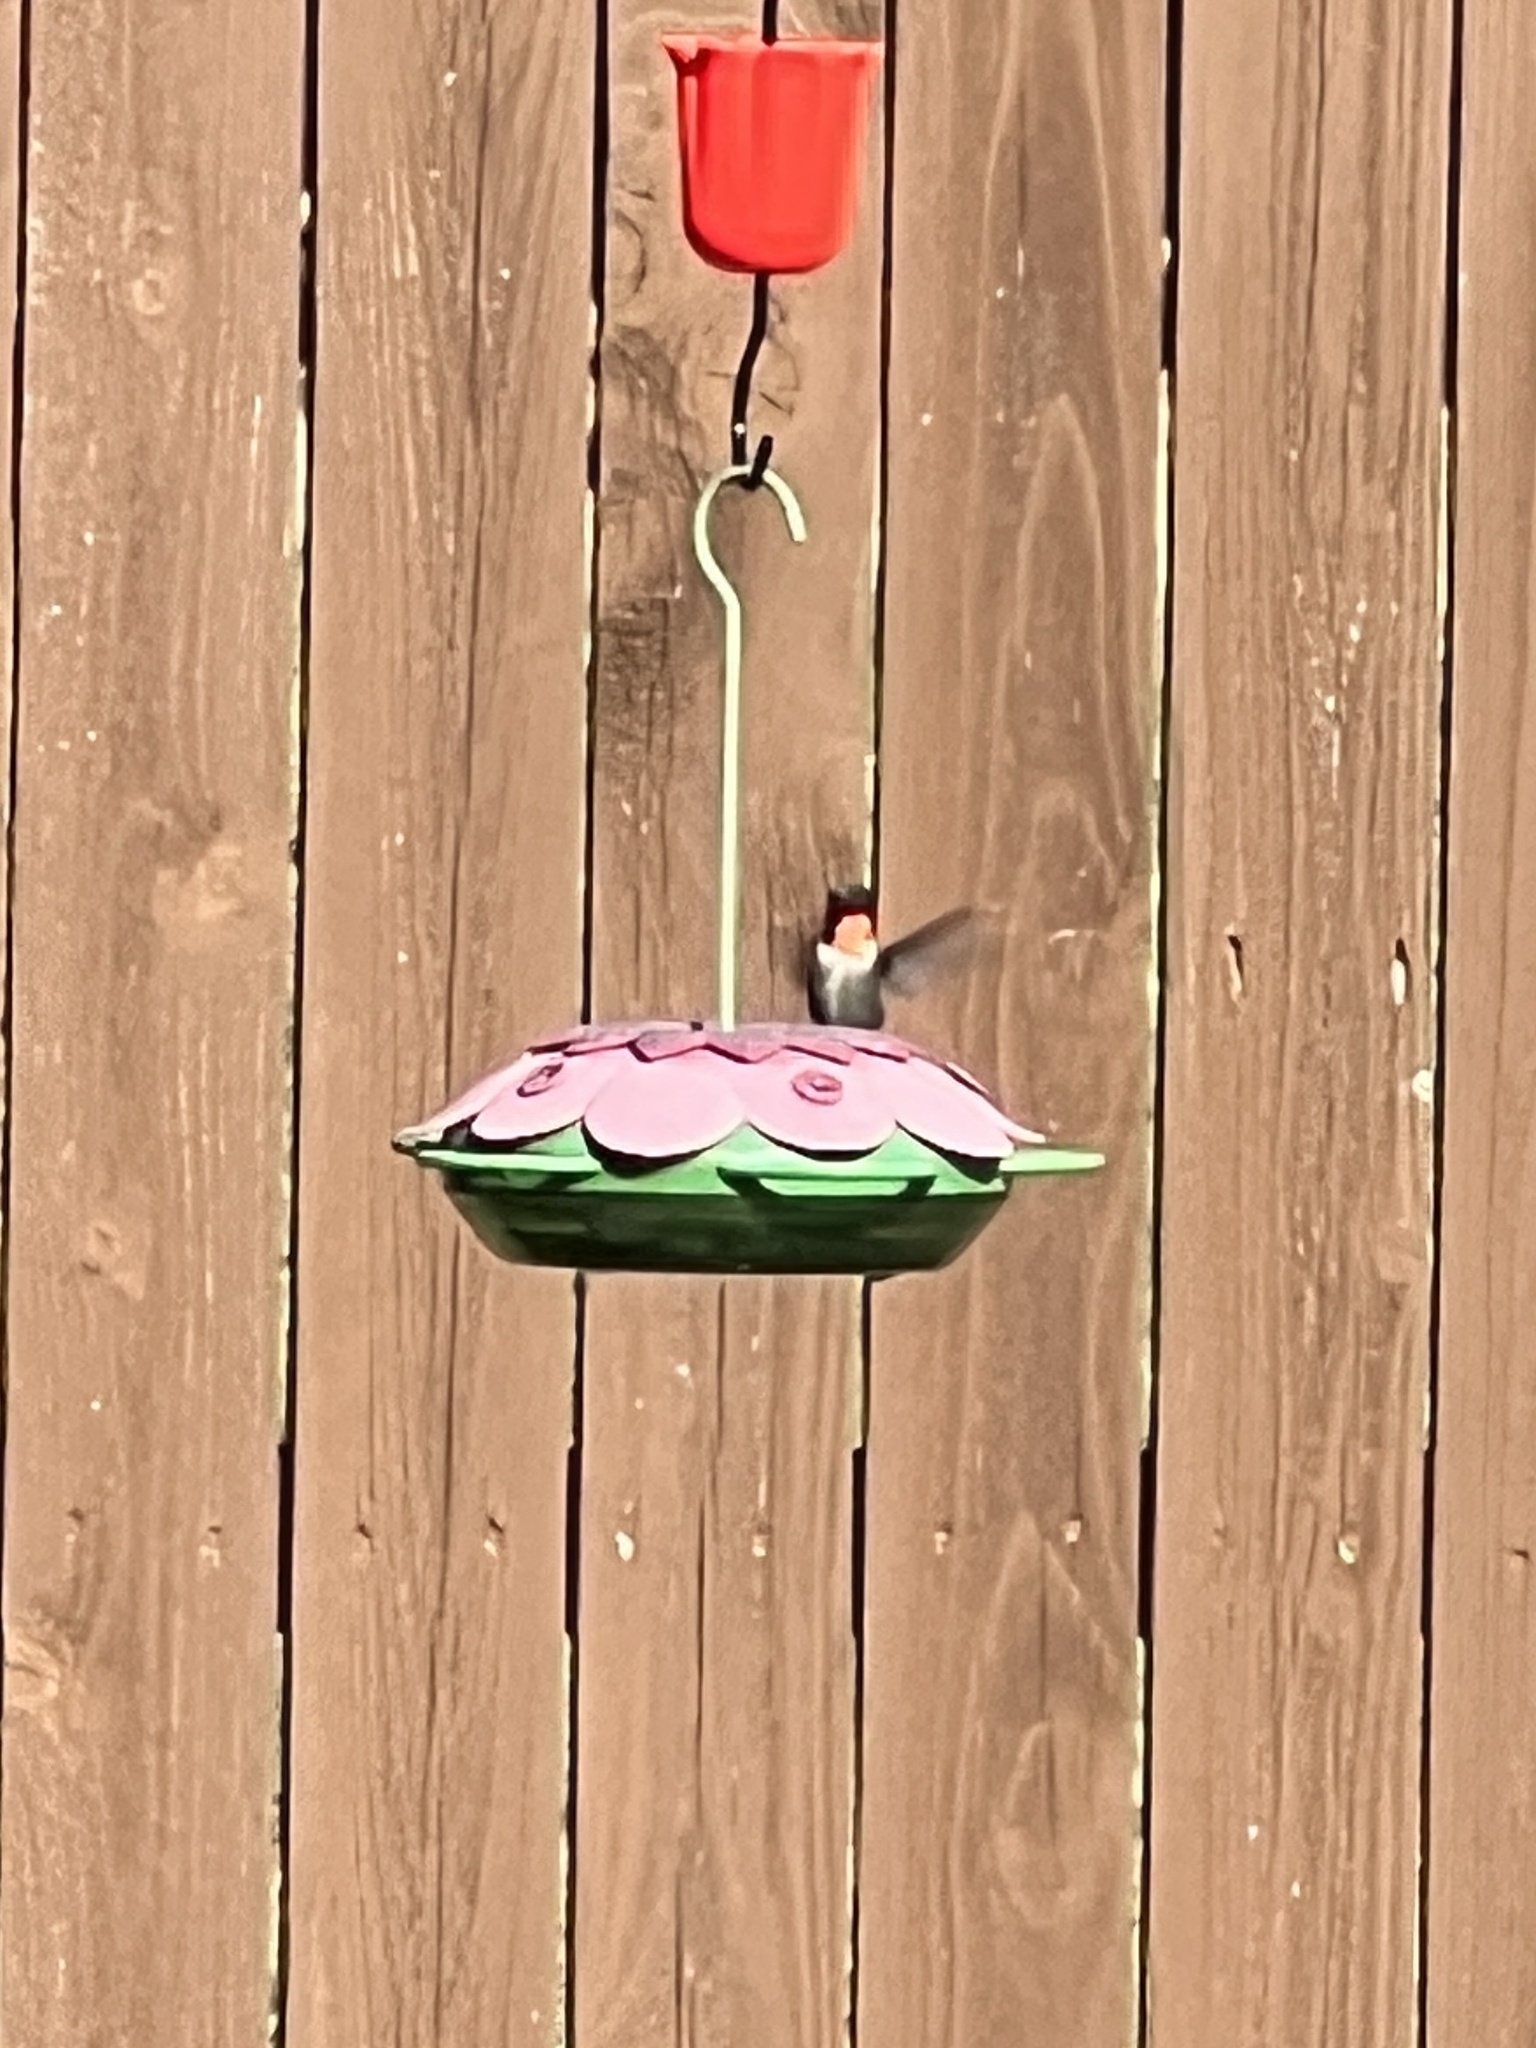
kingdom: Animalia
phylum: Chordata
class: Aves
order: Apodiformes
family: Trochilidae
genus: Archilochus
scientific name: Archilochus colubris
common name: Ruby-throated hummingbird
